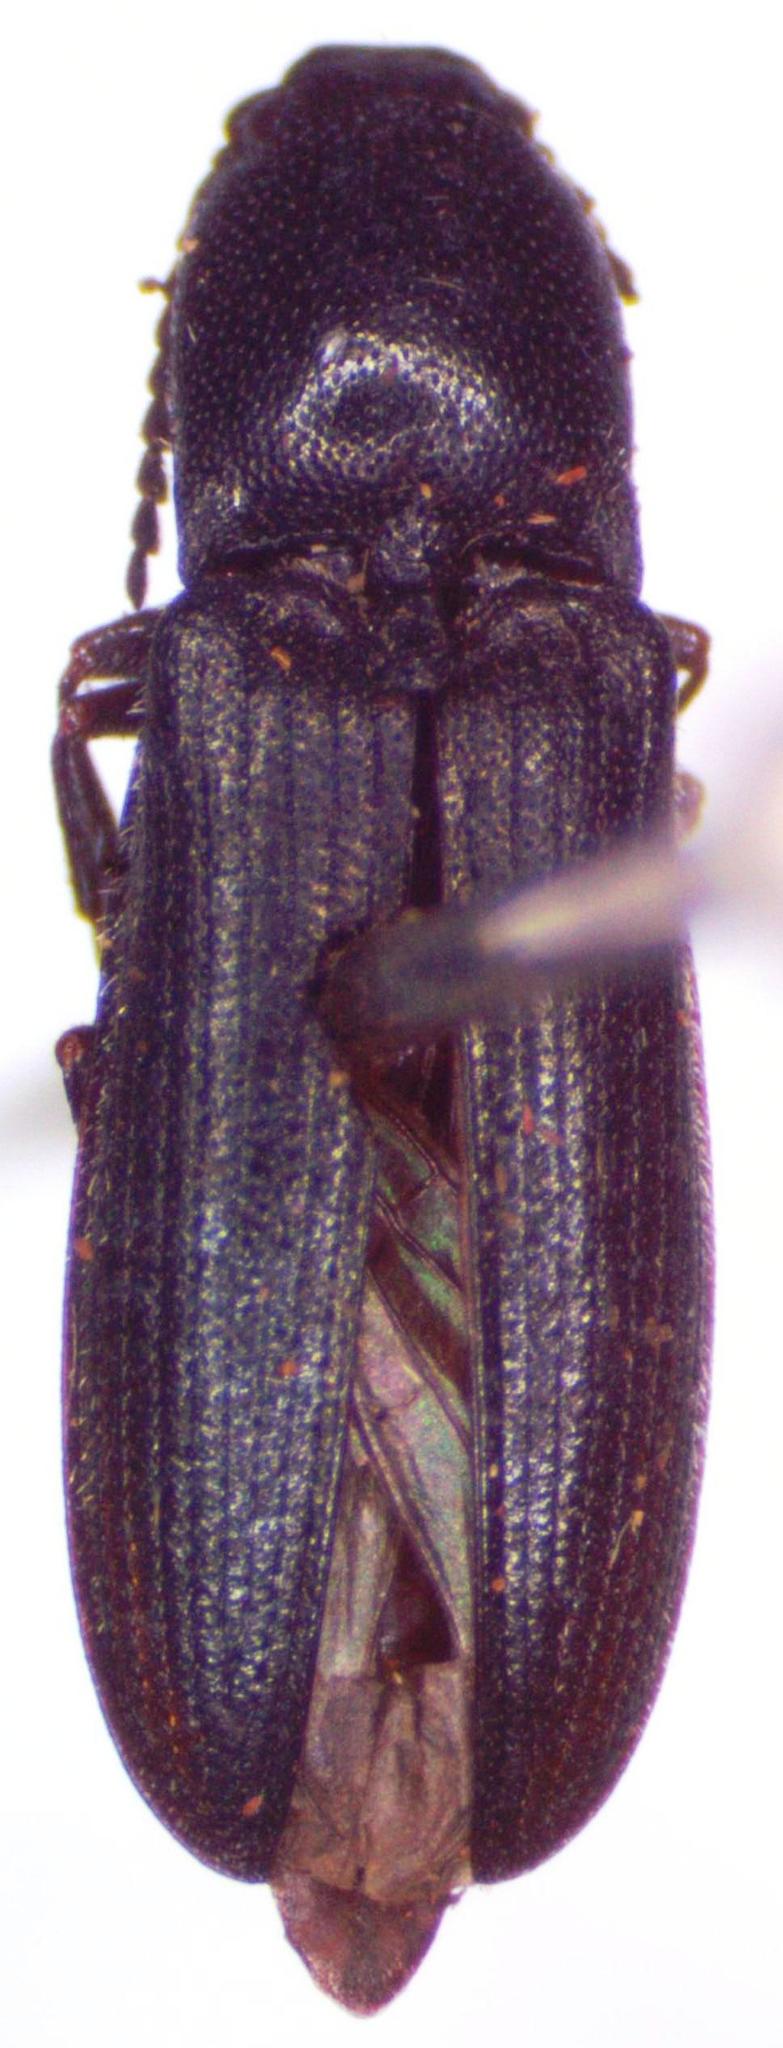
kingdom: Animalia
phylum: Arthropoda
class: Insecta
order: Coleoptera
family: Elateridae
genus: Limonius
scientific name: Limonius minutus
